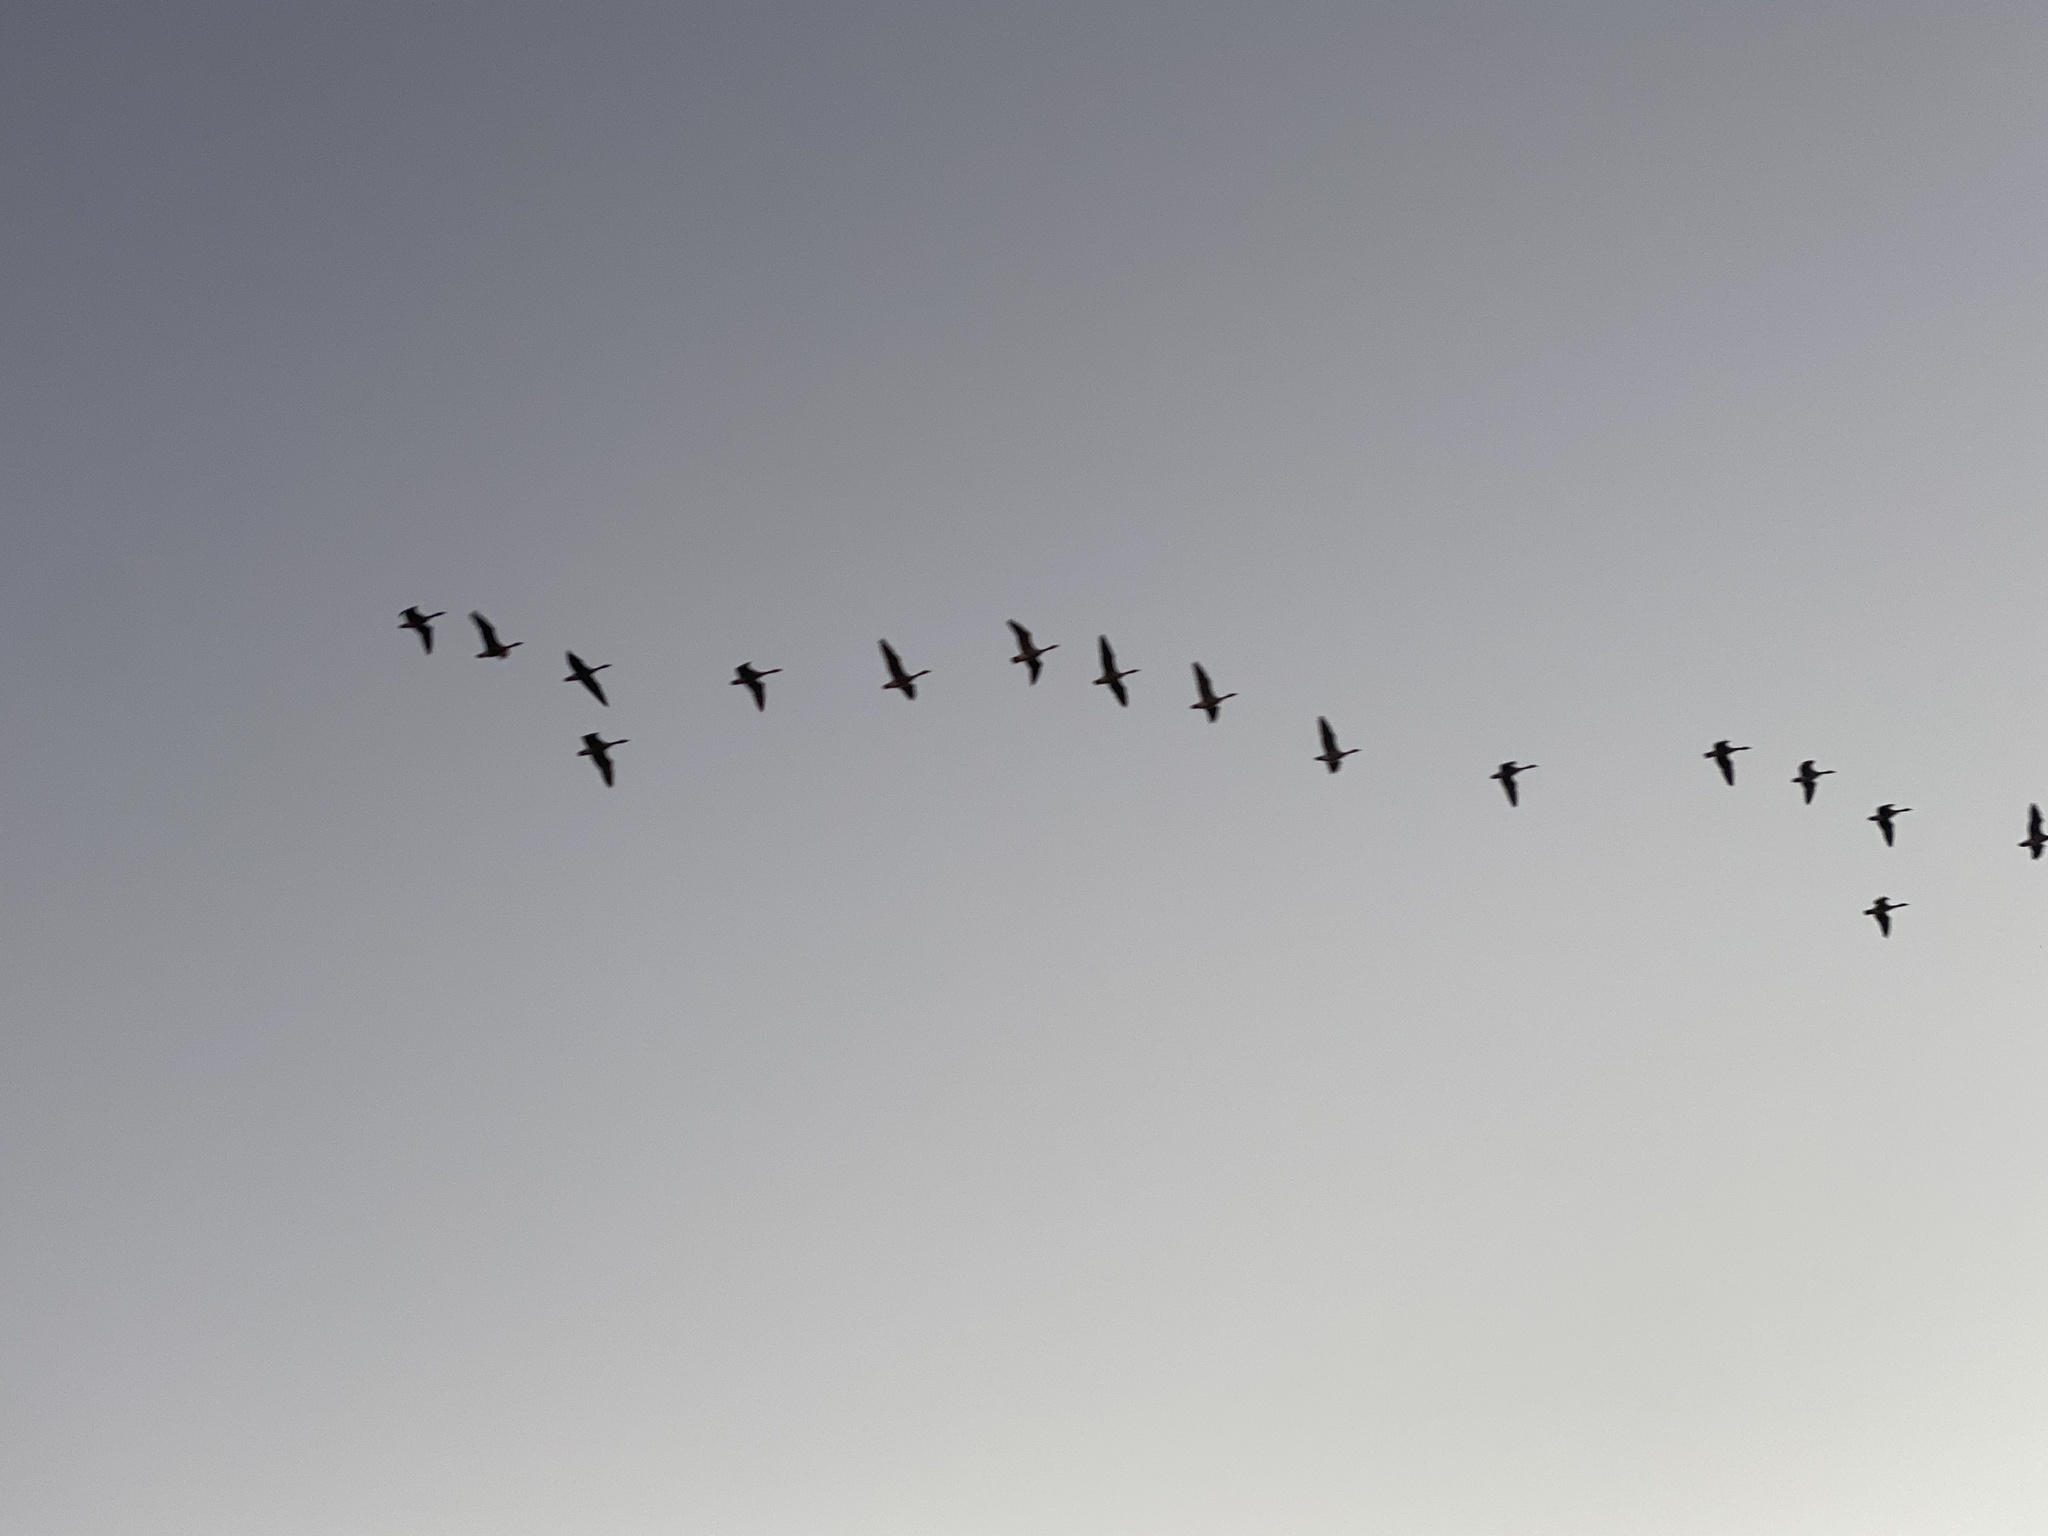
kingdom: Animalia
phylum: Chordata
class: Aves
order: Anseriformes
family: Anatidae
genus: Branta
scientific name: Branta canadensis
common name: Canada goose
